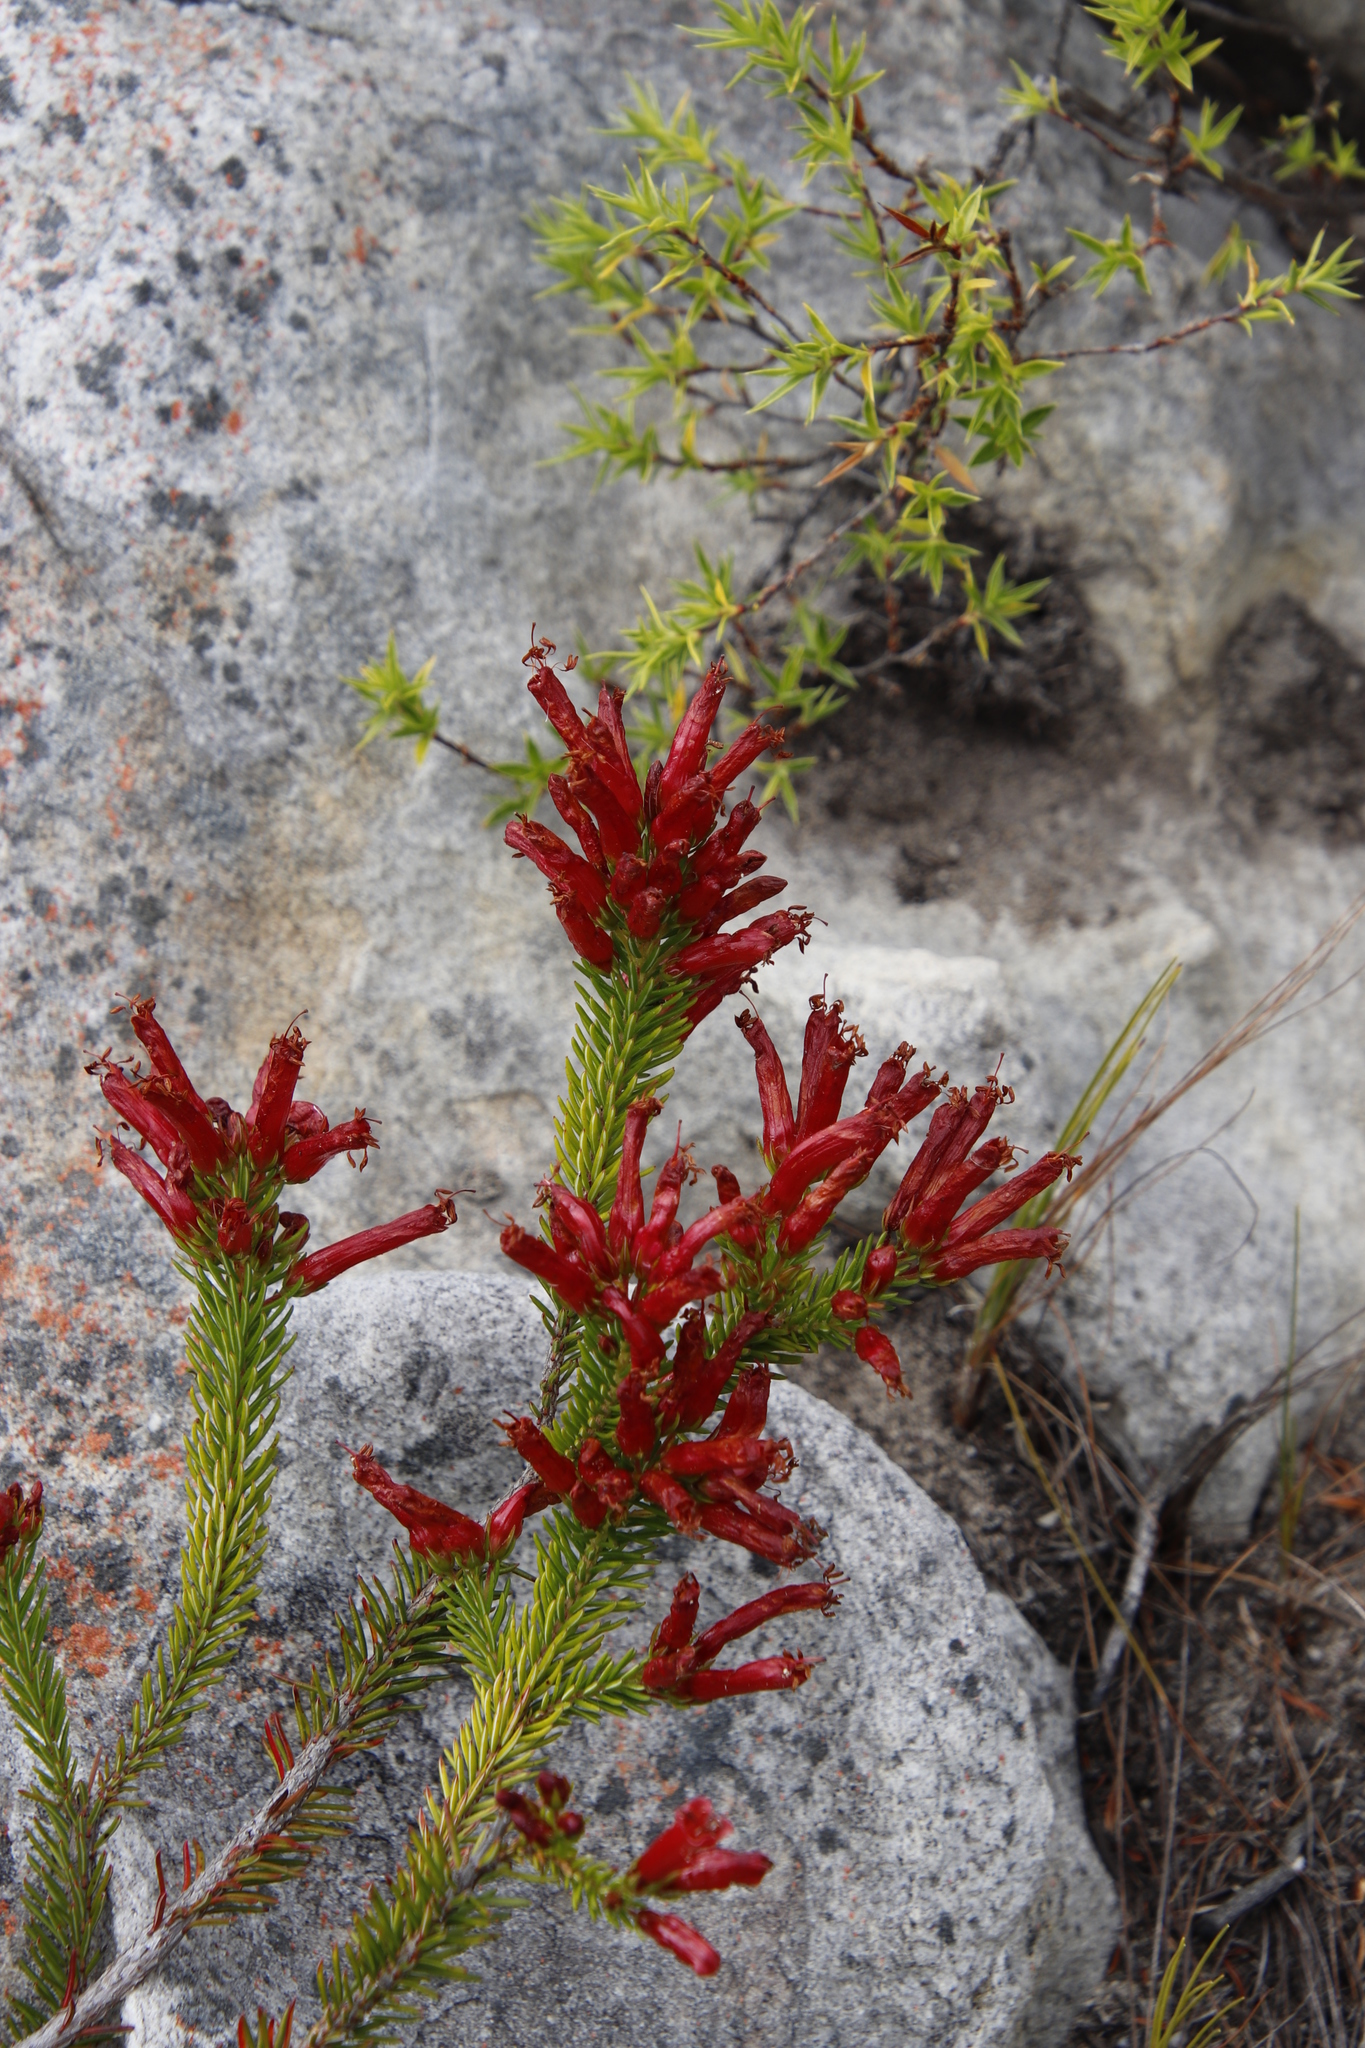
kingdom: Plantae
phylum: Tracheophyta
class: Magnoliopsida
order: Ericales
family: Ericaceae
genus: Erica
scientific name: Erica nevillei
